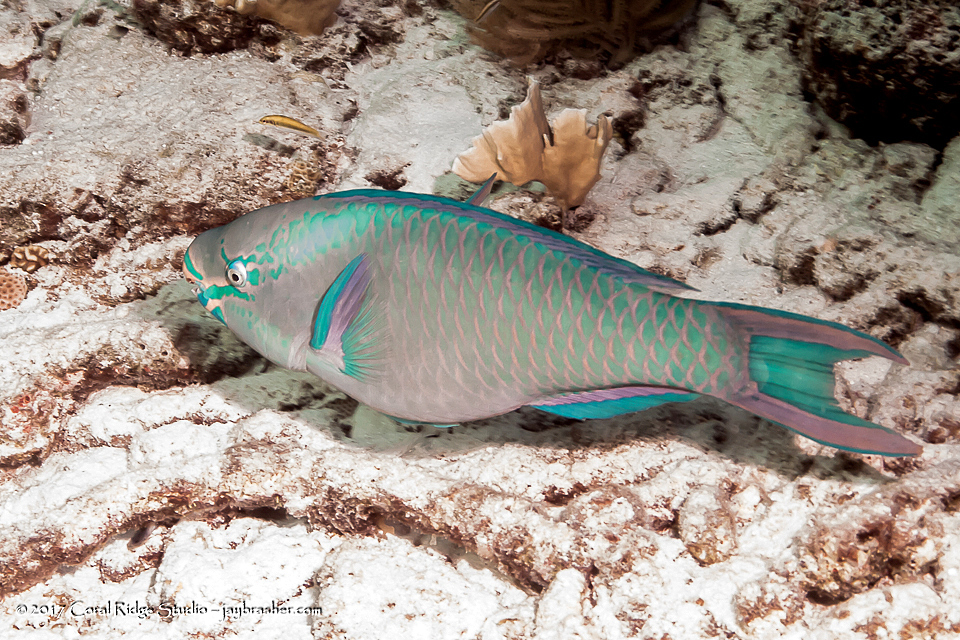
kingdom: Animalia
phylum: Chordata
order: Perciformes
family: Scaridae
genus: Scarus
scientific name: Scarus vetula
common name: Queen parrotfish
